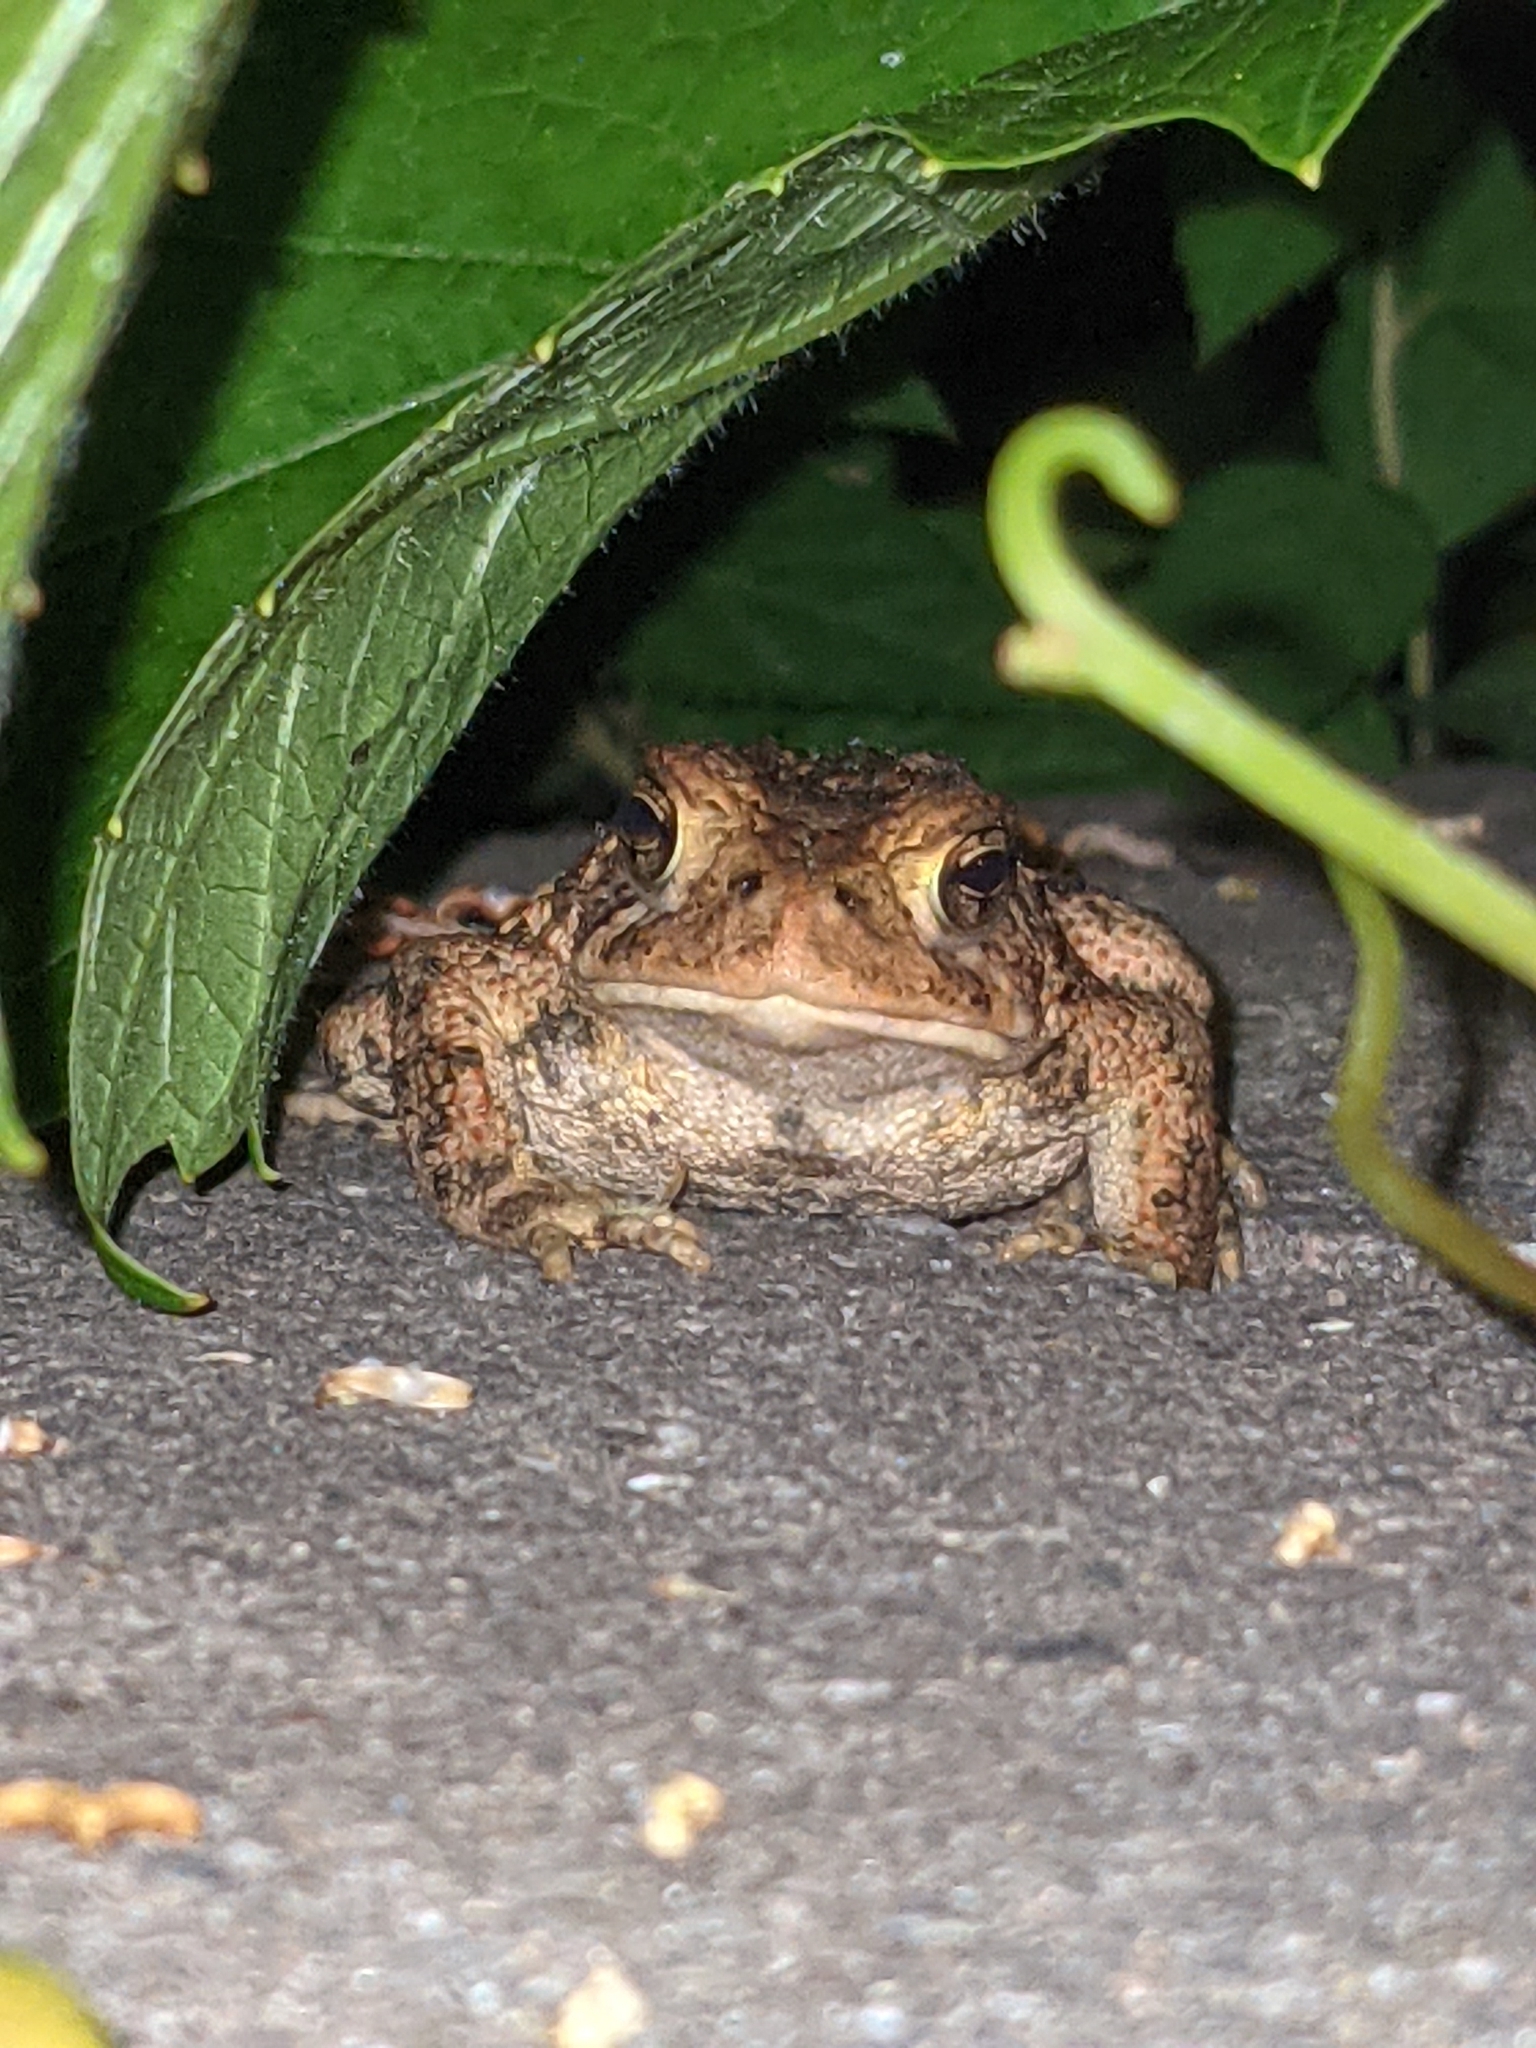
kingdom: Animalia
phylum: Chordata
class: Amphibia
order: Anura
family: Bufonidae
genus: Anaxyrus
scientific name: Anaxyrus americanus
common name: American toad
